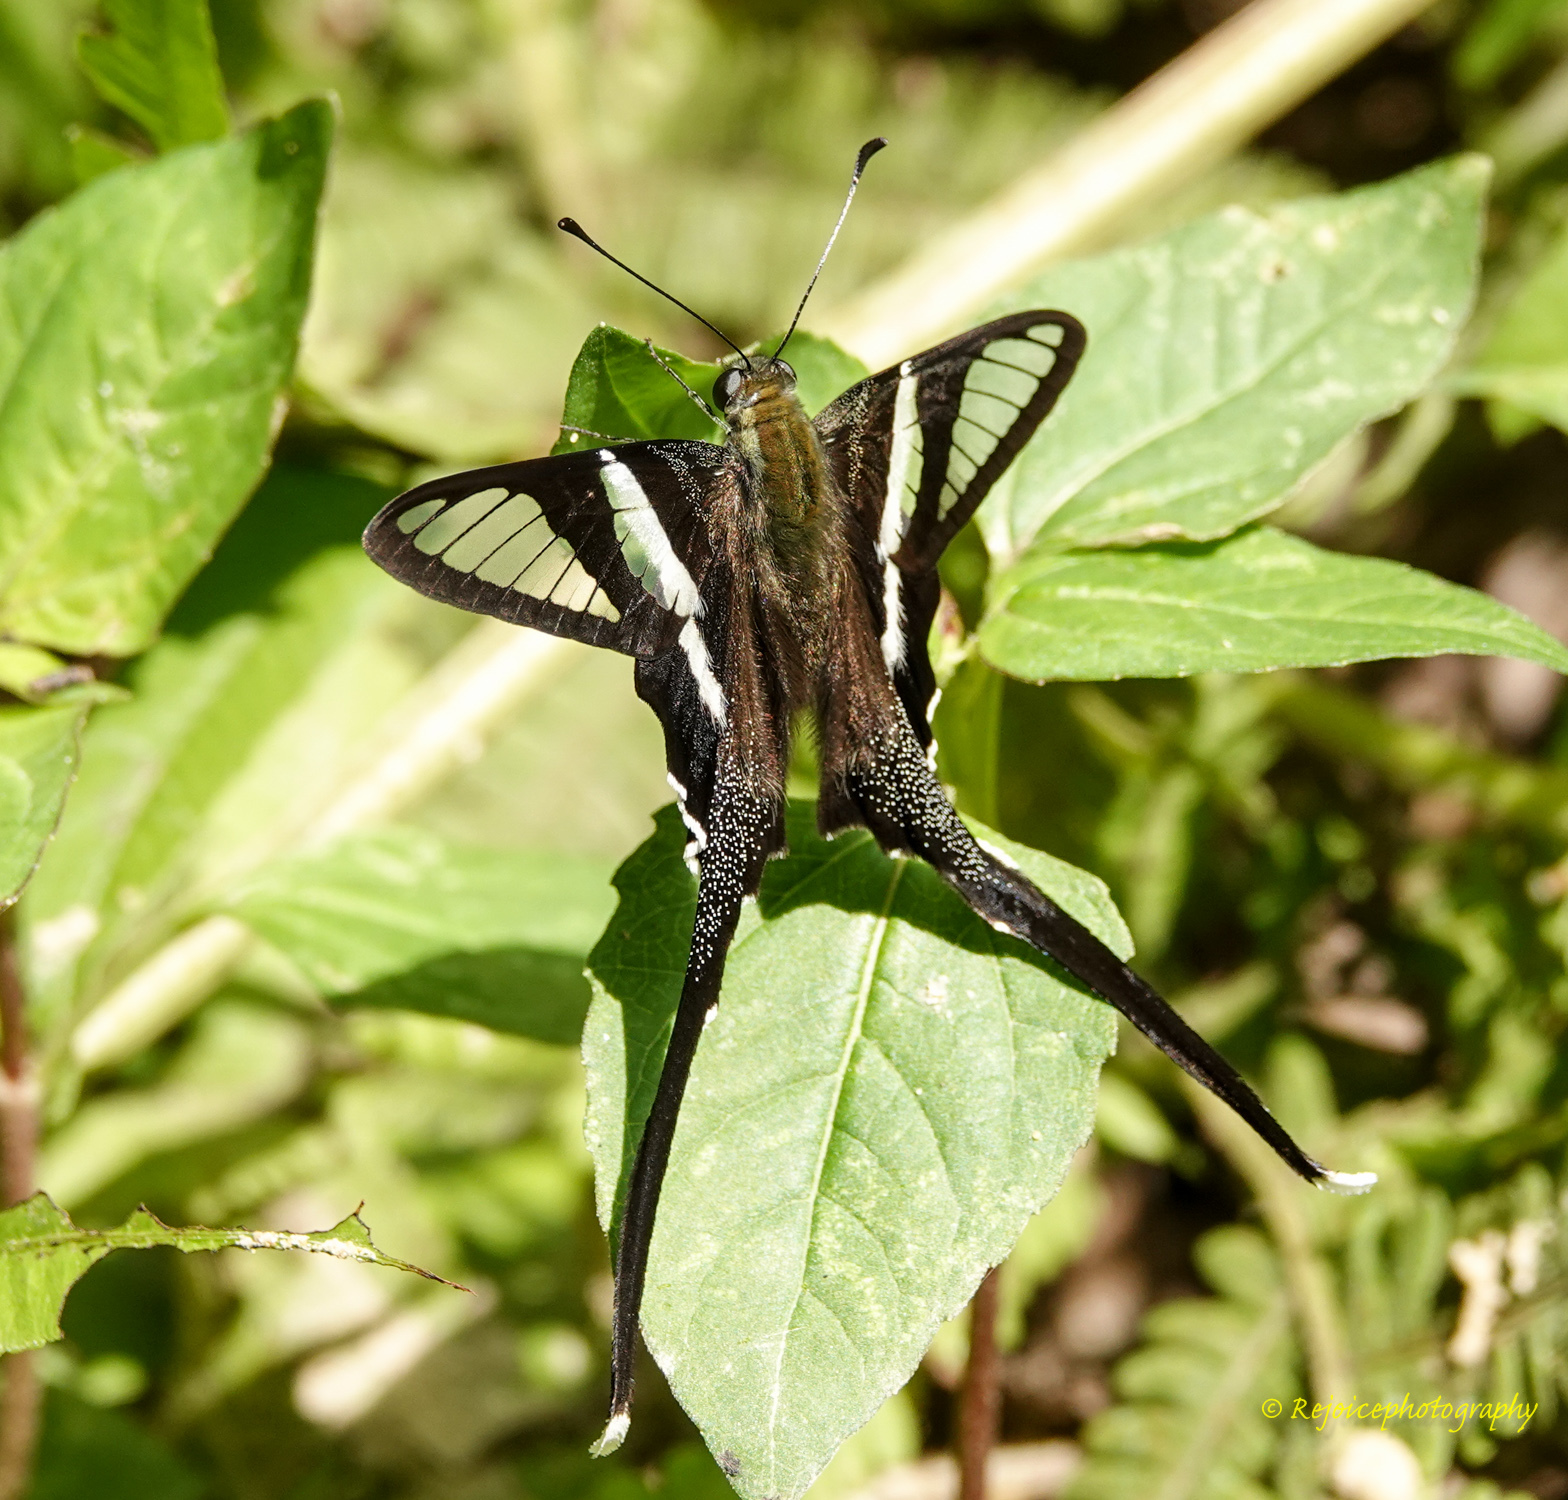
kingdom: Animalia
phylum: Arthropoda
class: Insecta
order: Lepidoptera
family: Papilionidae
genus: Lamproptera
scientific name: Lamproptera curius
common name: White dragontail
